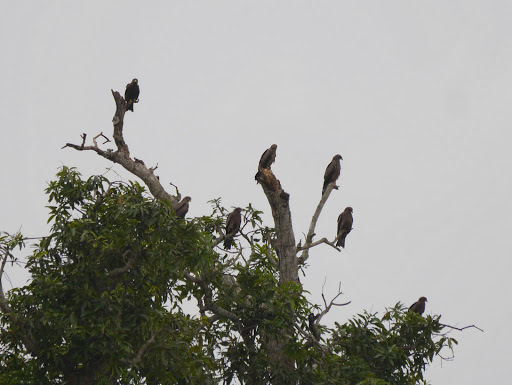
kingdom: Animalia
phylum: Chordata
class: Aves
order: Accipitriformes
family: Accipitridae
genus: Milvus
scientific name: Milvus migrans
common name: Black kite
